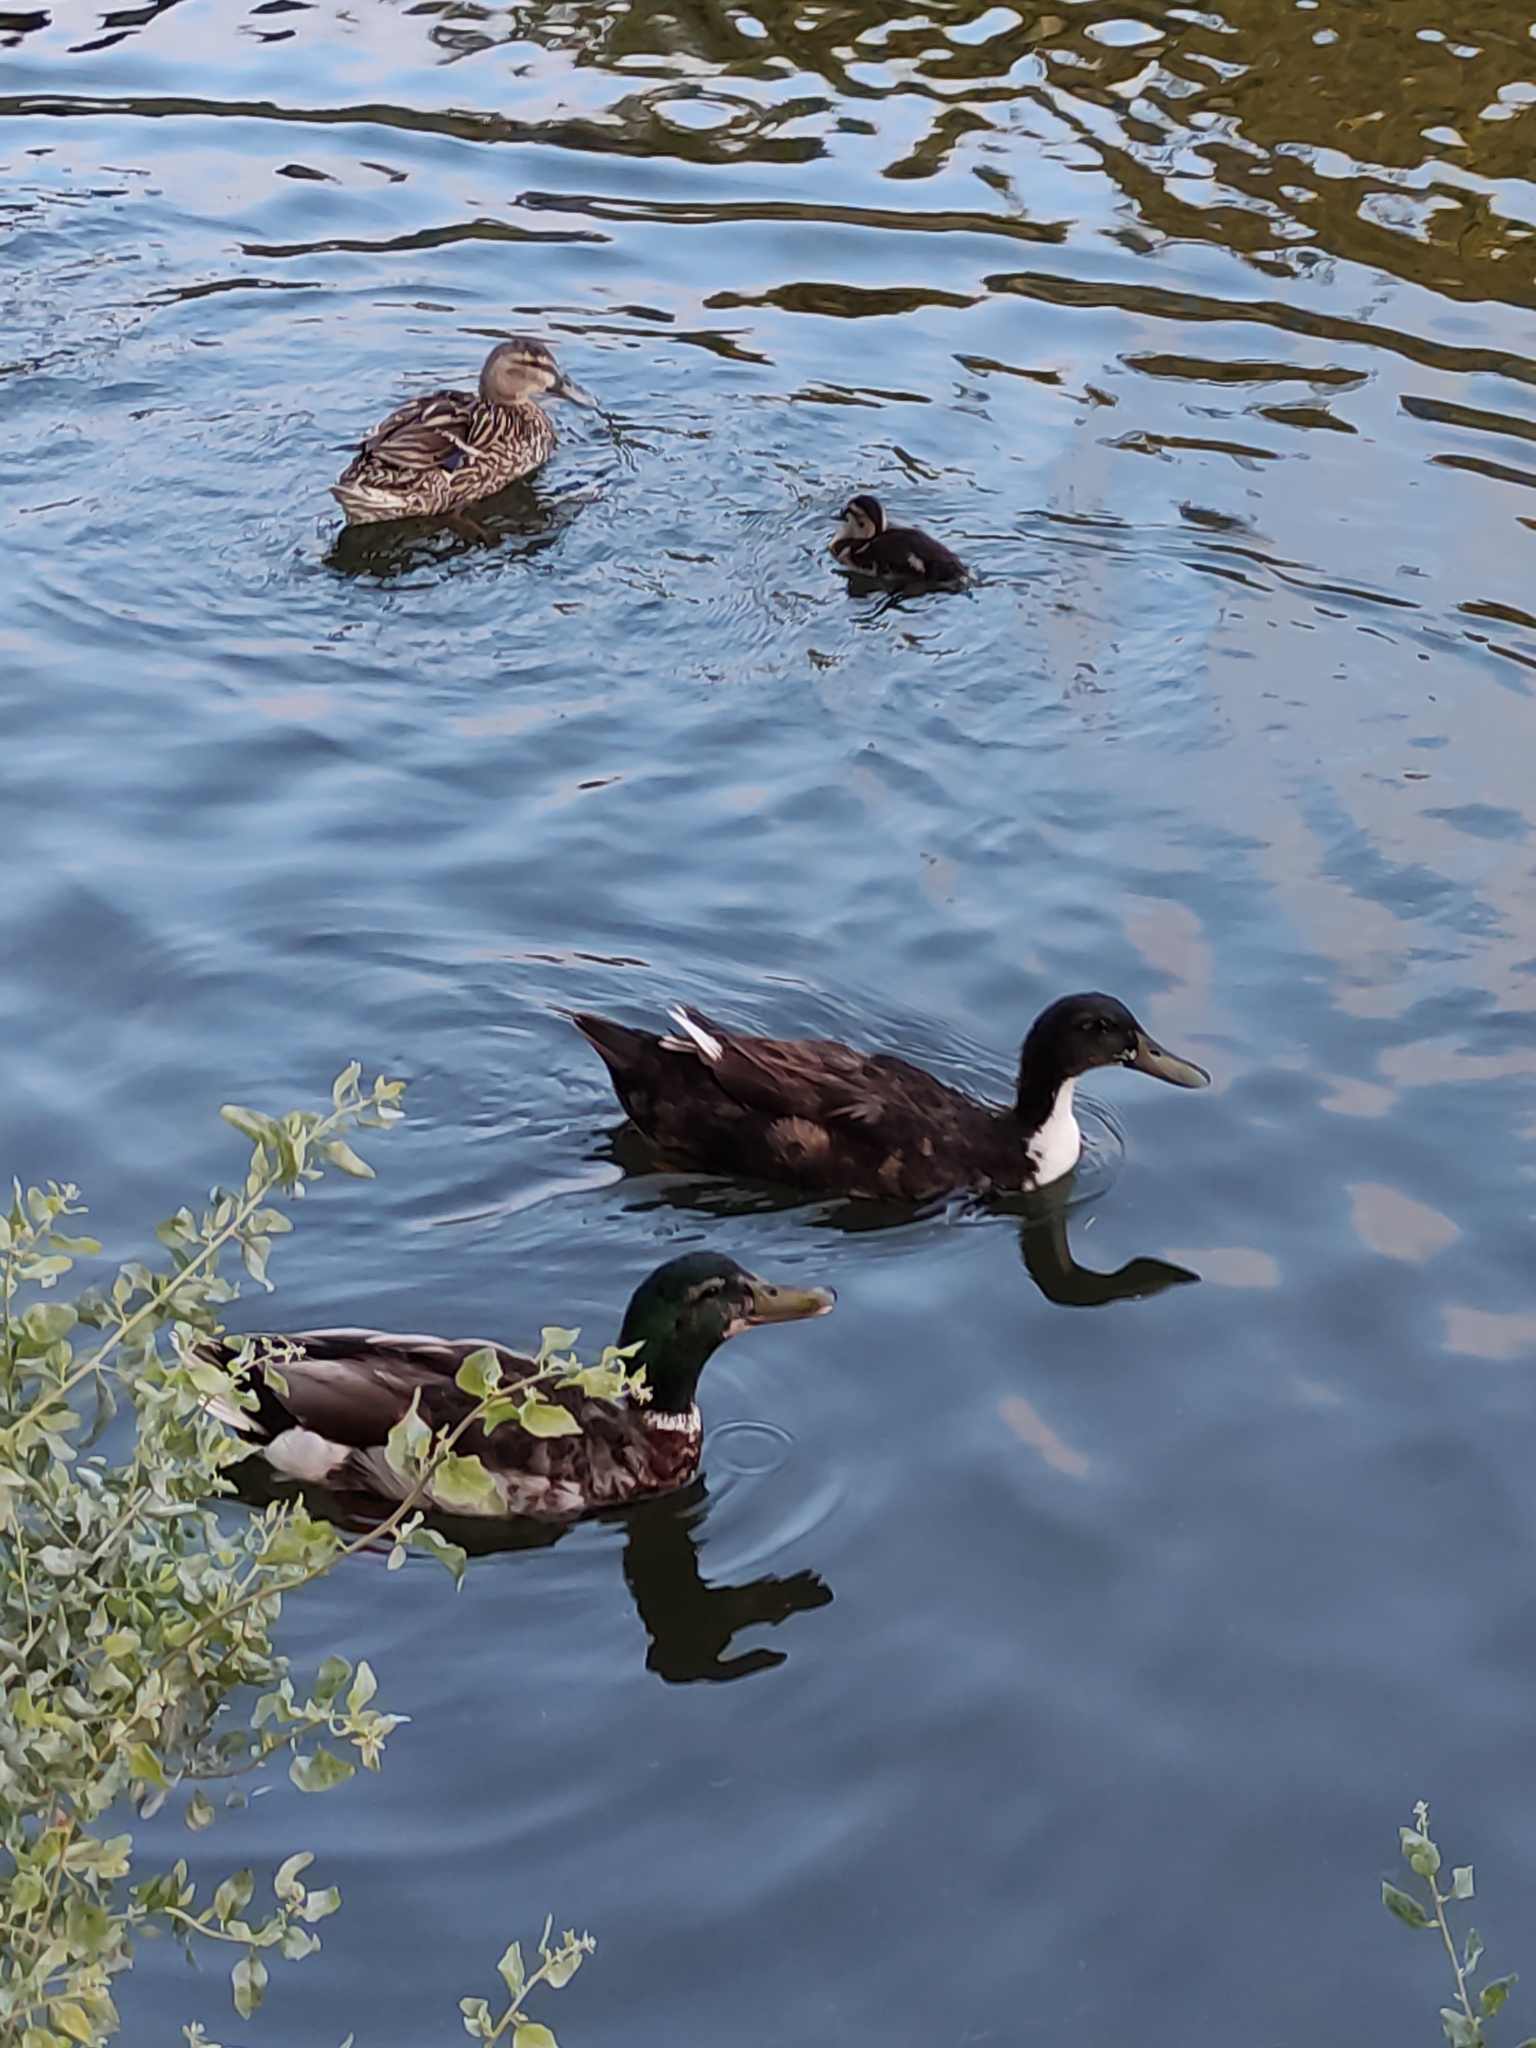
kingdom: Animalia
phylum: Chordata
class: Aves
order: Anseriformes
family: Anatidae
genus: Anas
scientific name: Anas platyrhynchos
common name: Mallard
